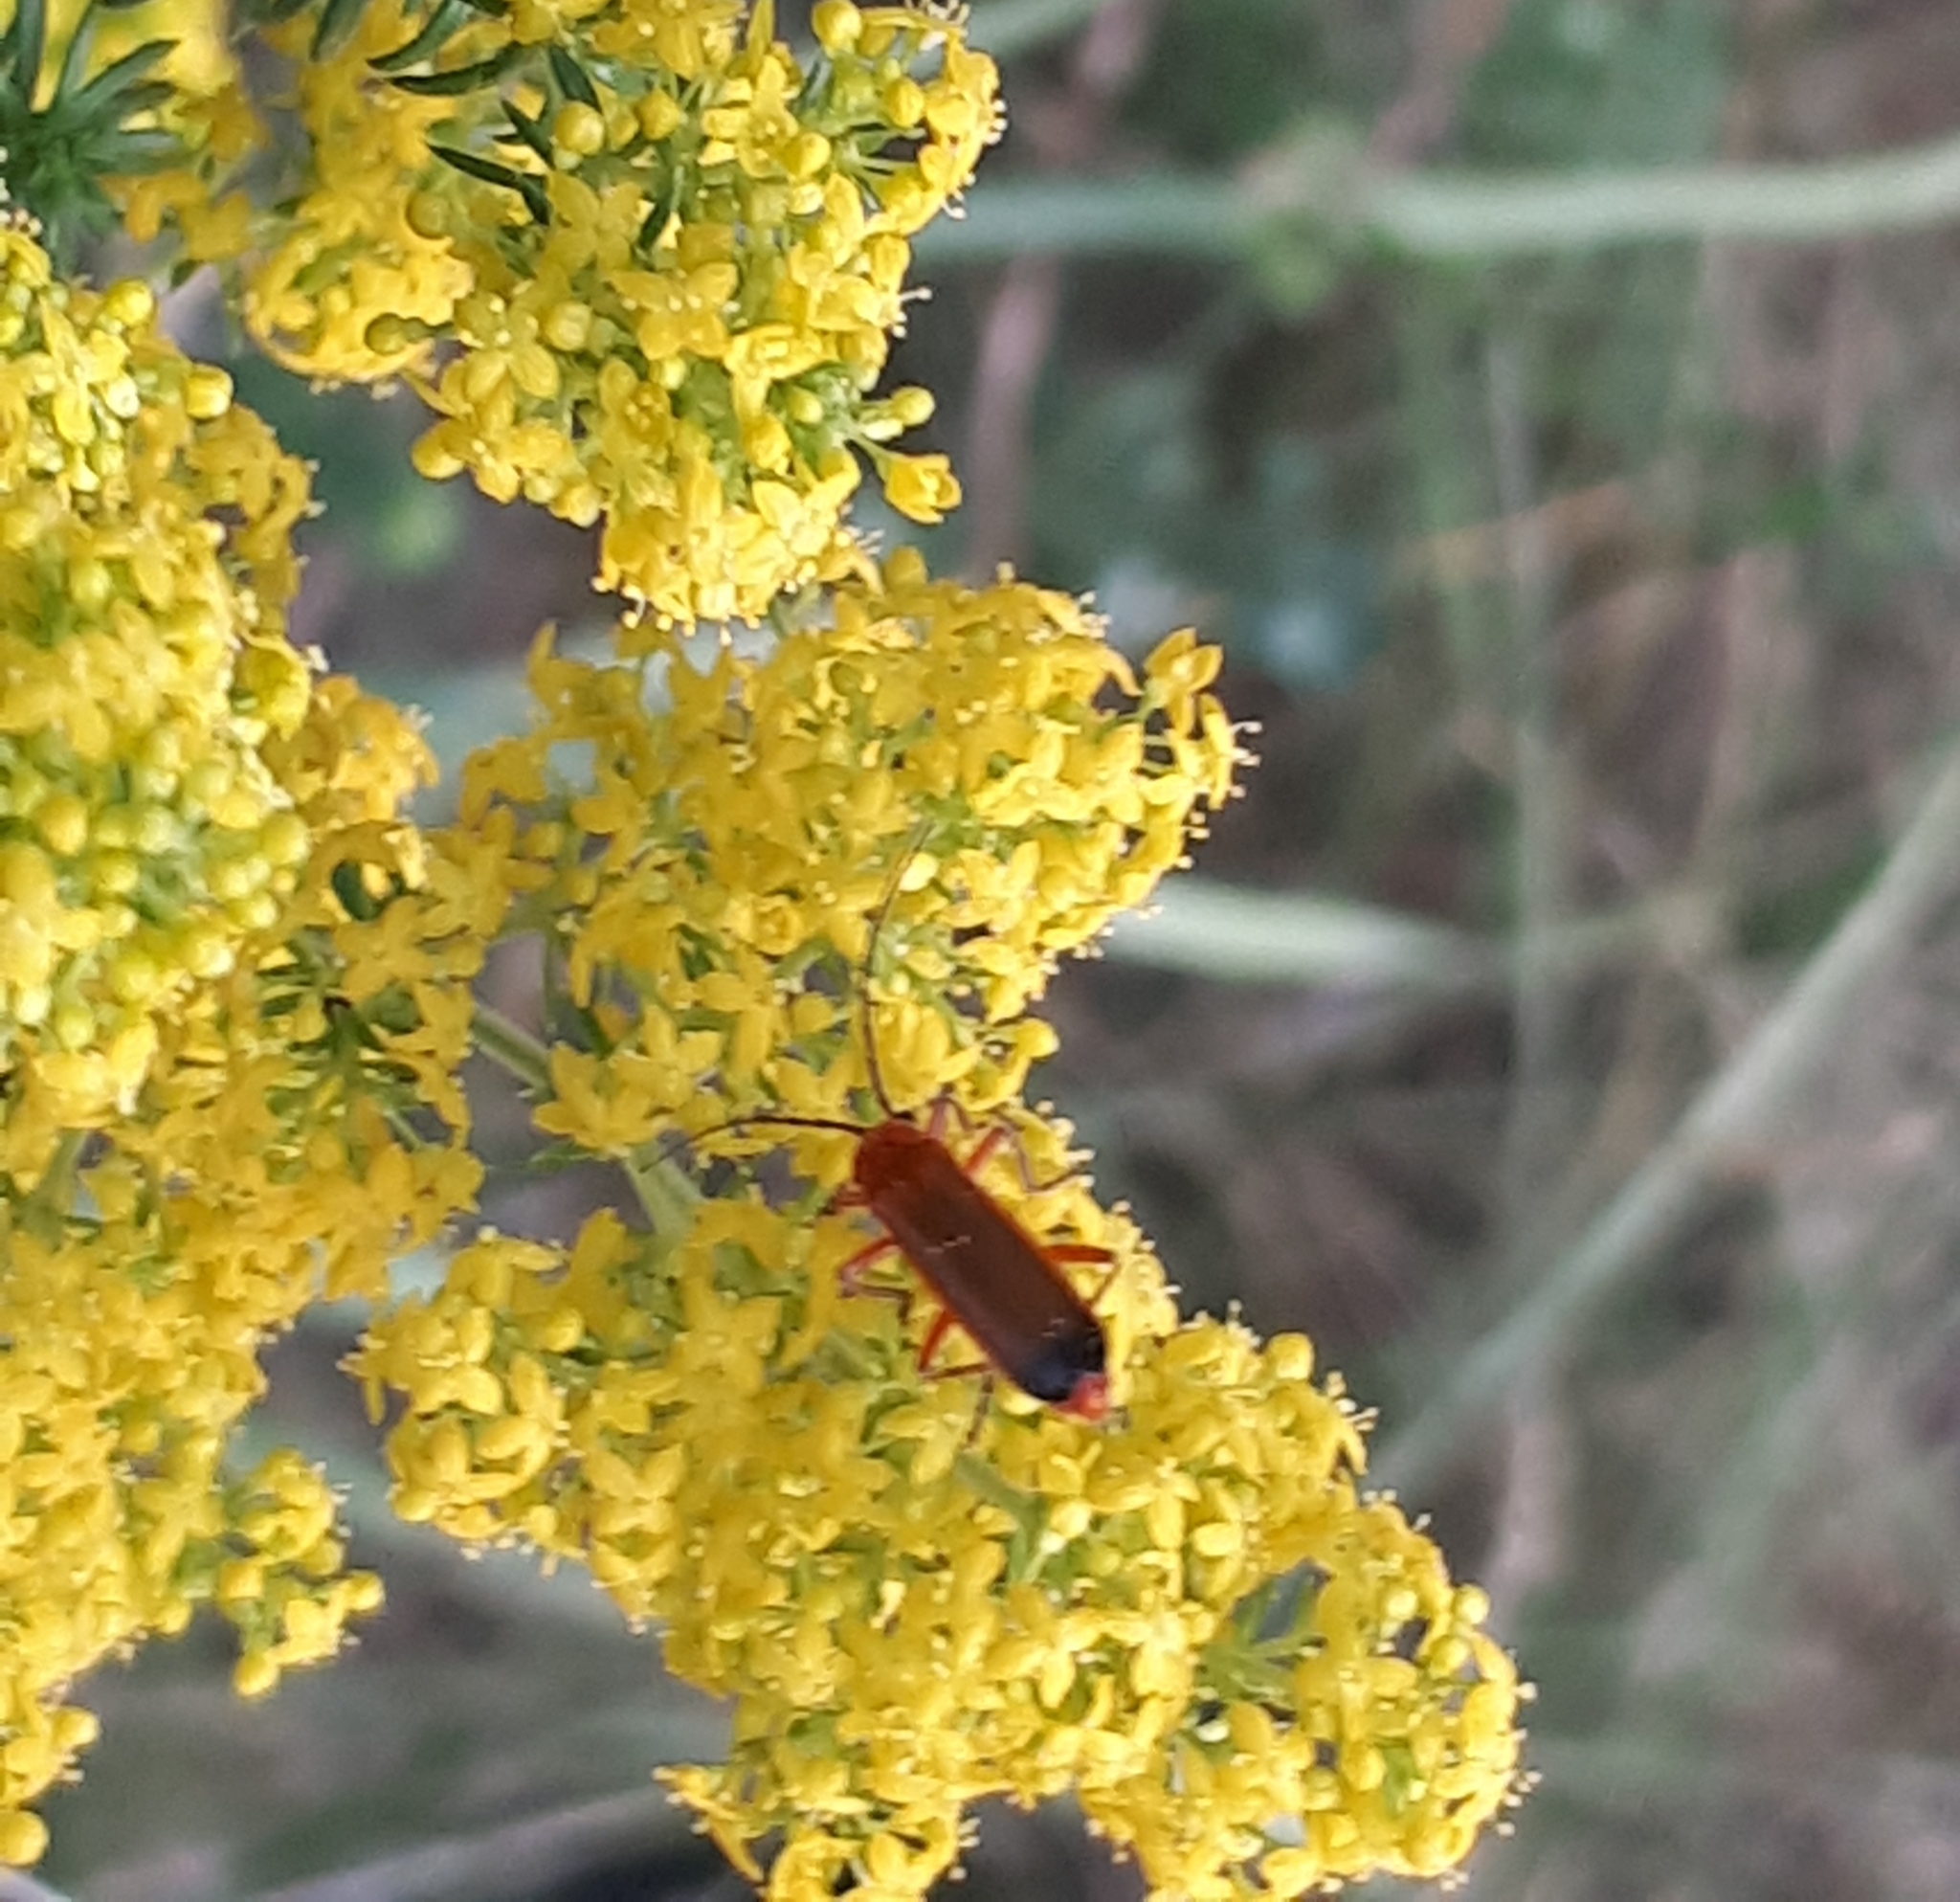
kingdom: Animalia
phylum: Arthropoda
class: Insecta
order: Coleoptera
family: Cantharidae
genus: Rhagonycha
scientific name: Rhagonycha fulva
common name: Common red soldier beetle
